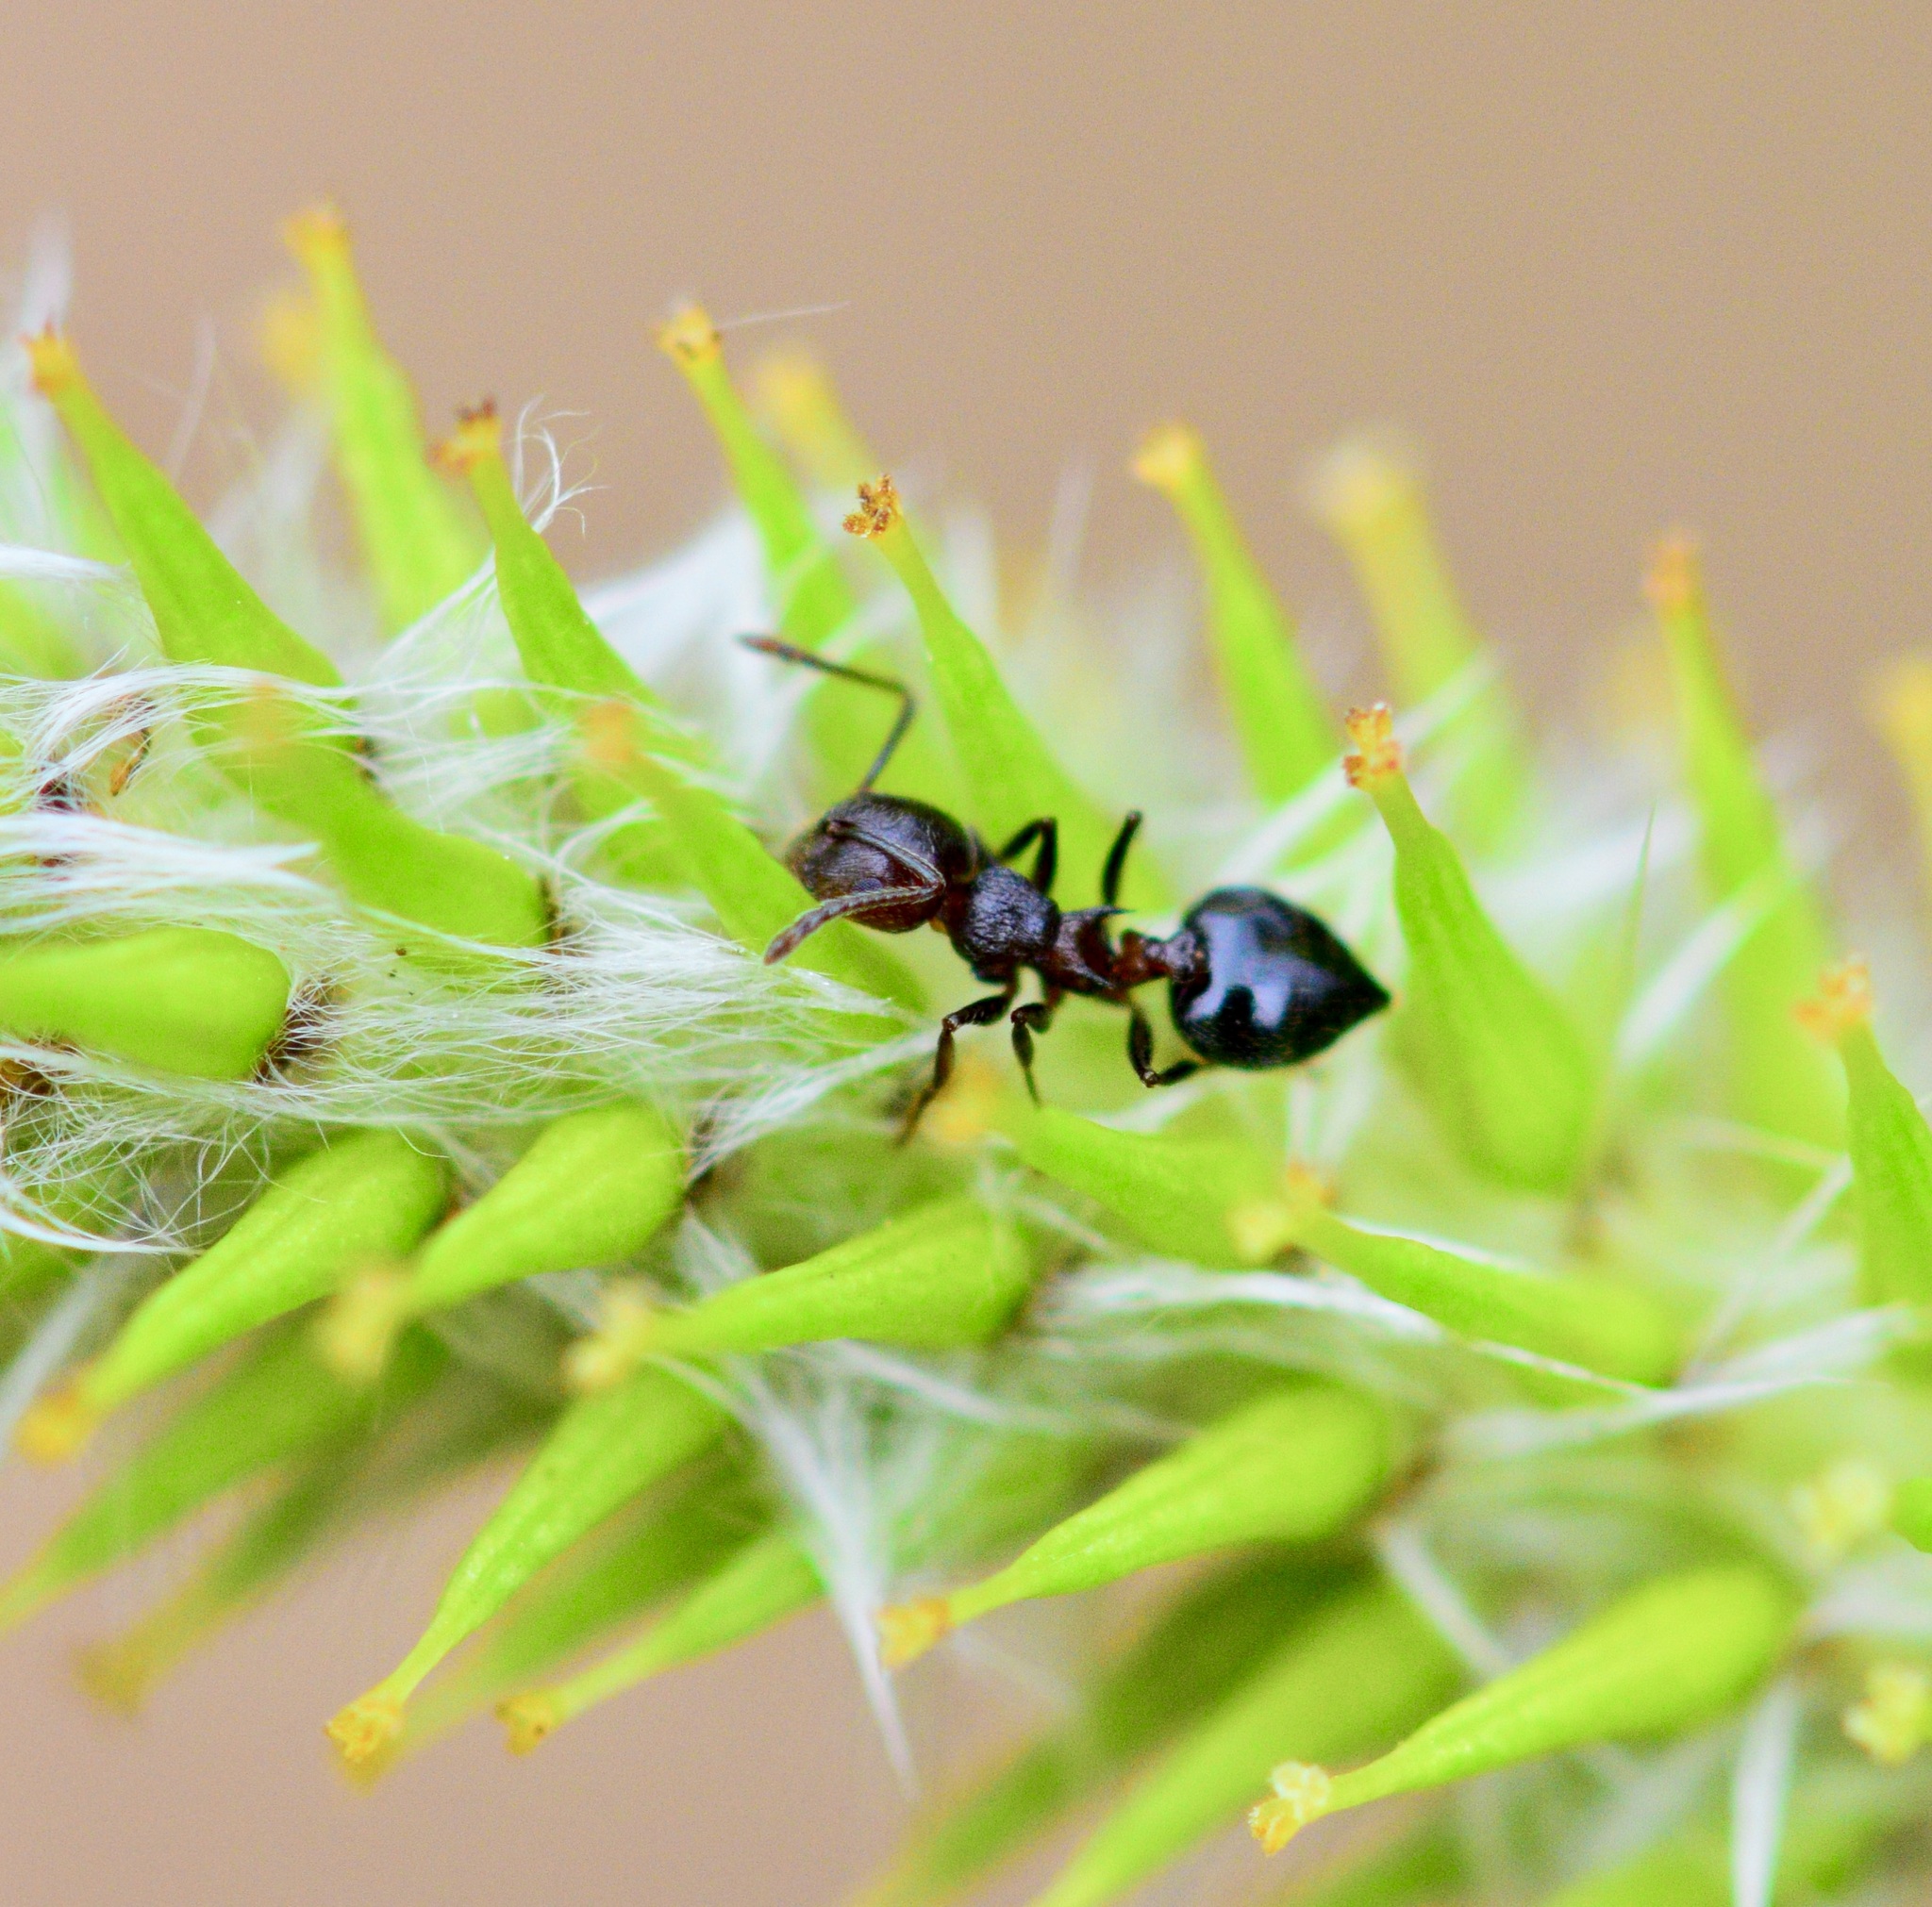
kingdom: Animalia
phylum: Arthropoda
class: Insecta
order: Hymenoptera
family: Formicidae
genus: Crematogaster
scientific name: Crematogaster cerasi
